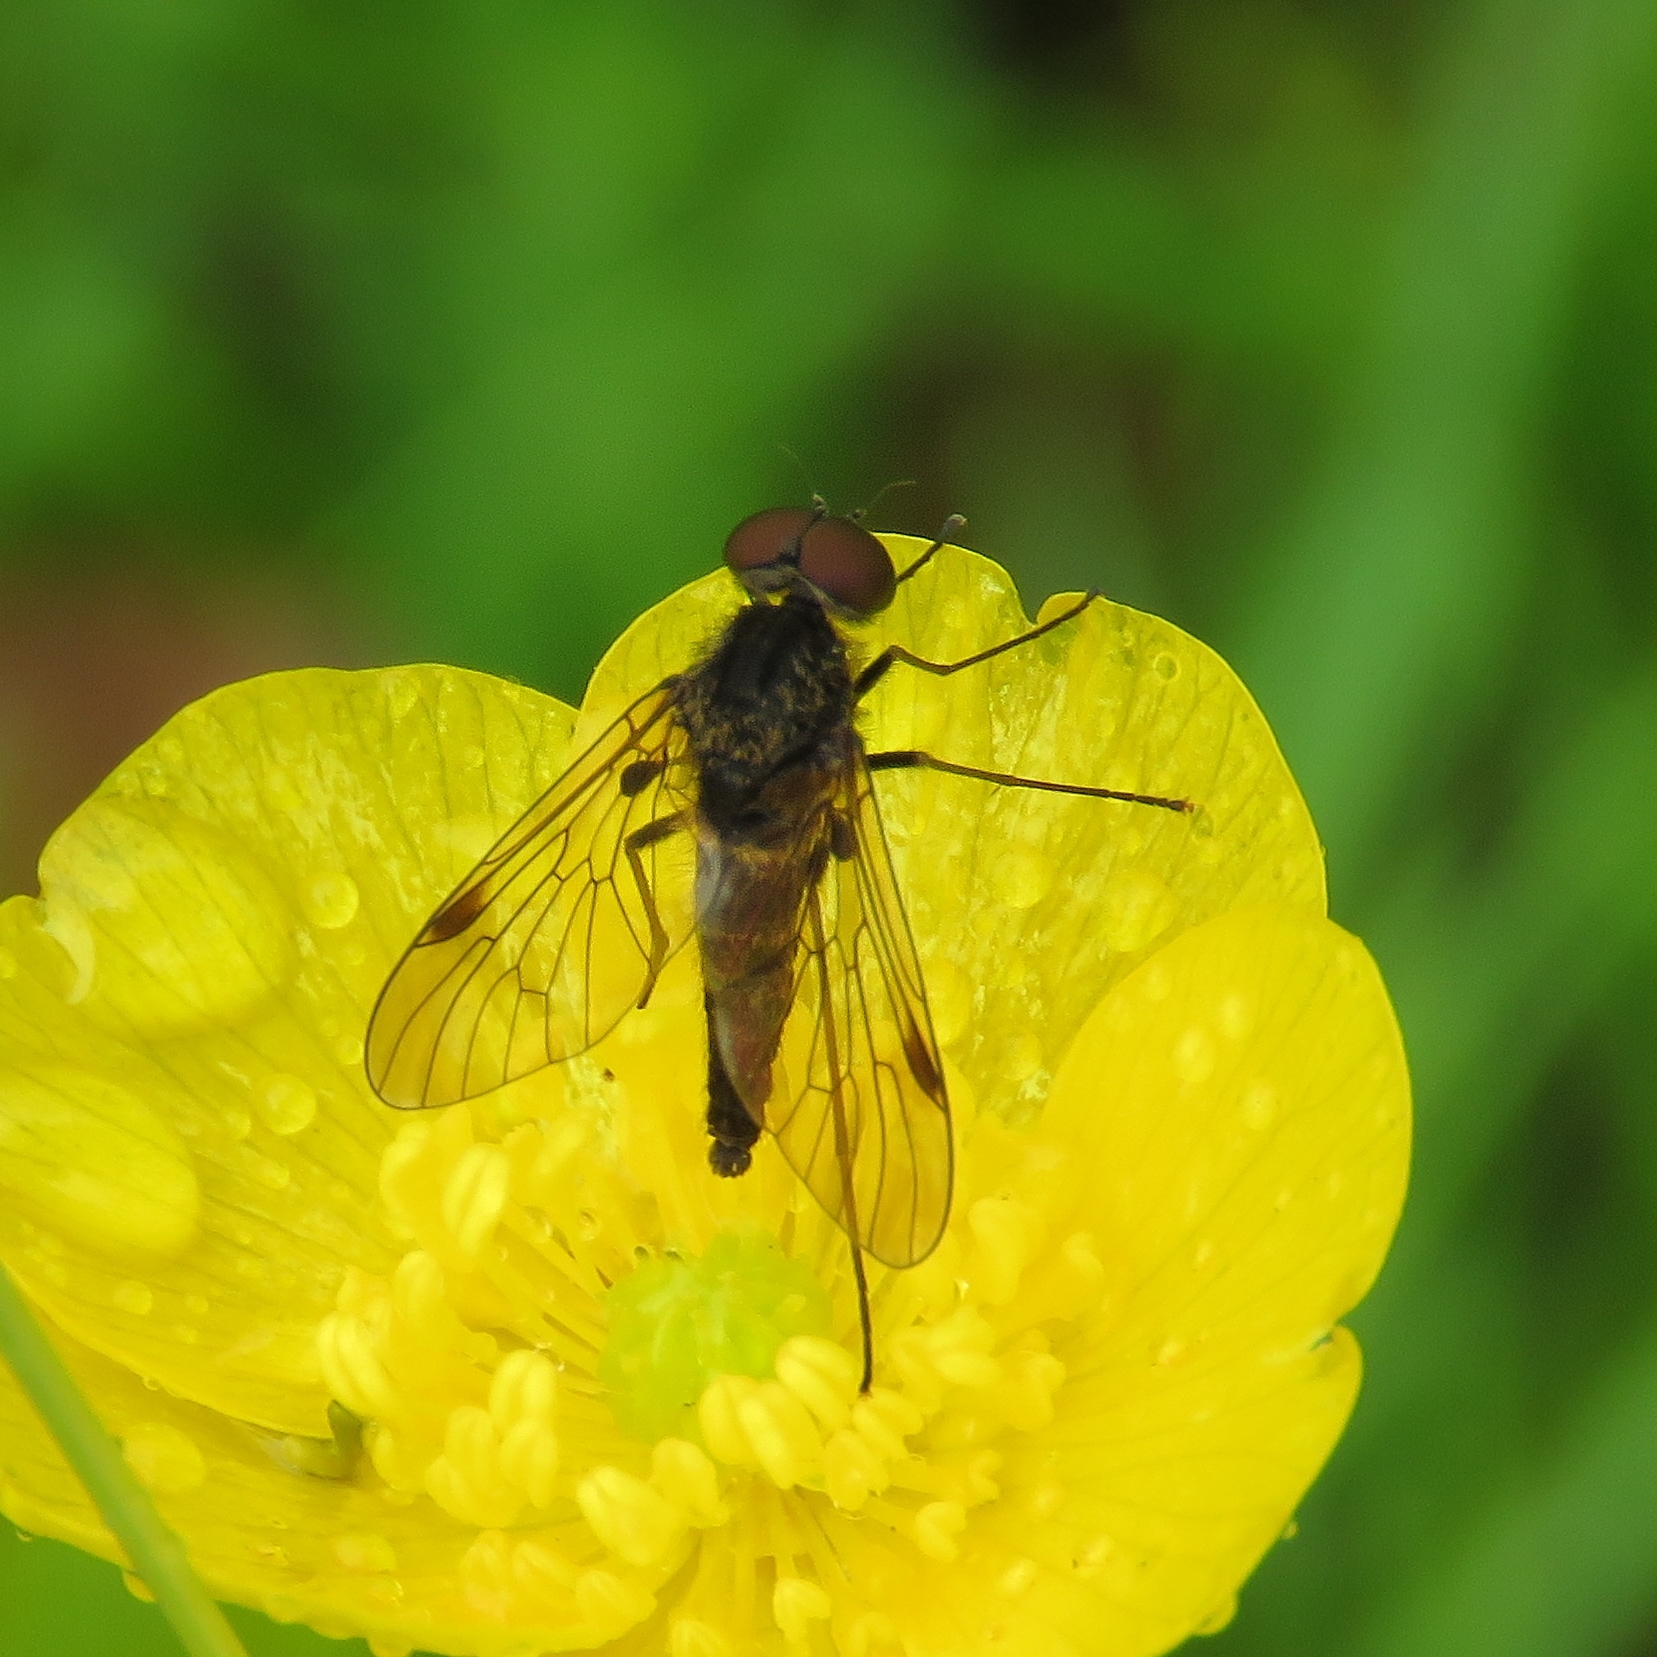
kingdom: Animalia
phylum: Arthropoda
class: Insecta
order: Diptera
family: Rhagionidae
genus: Chrysopilus
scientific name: Chrysopilus cristatus
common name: Black snipefly
